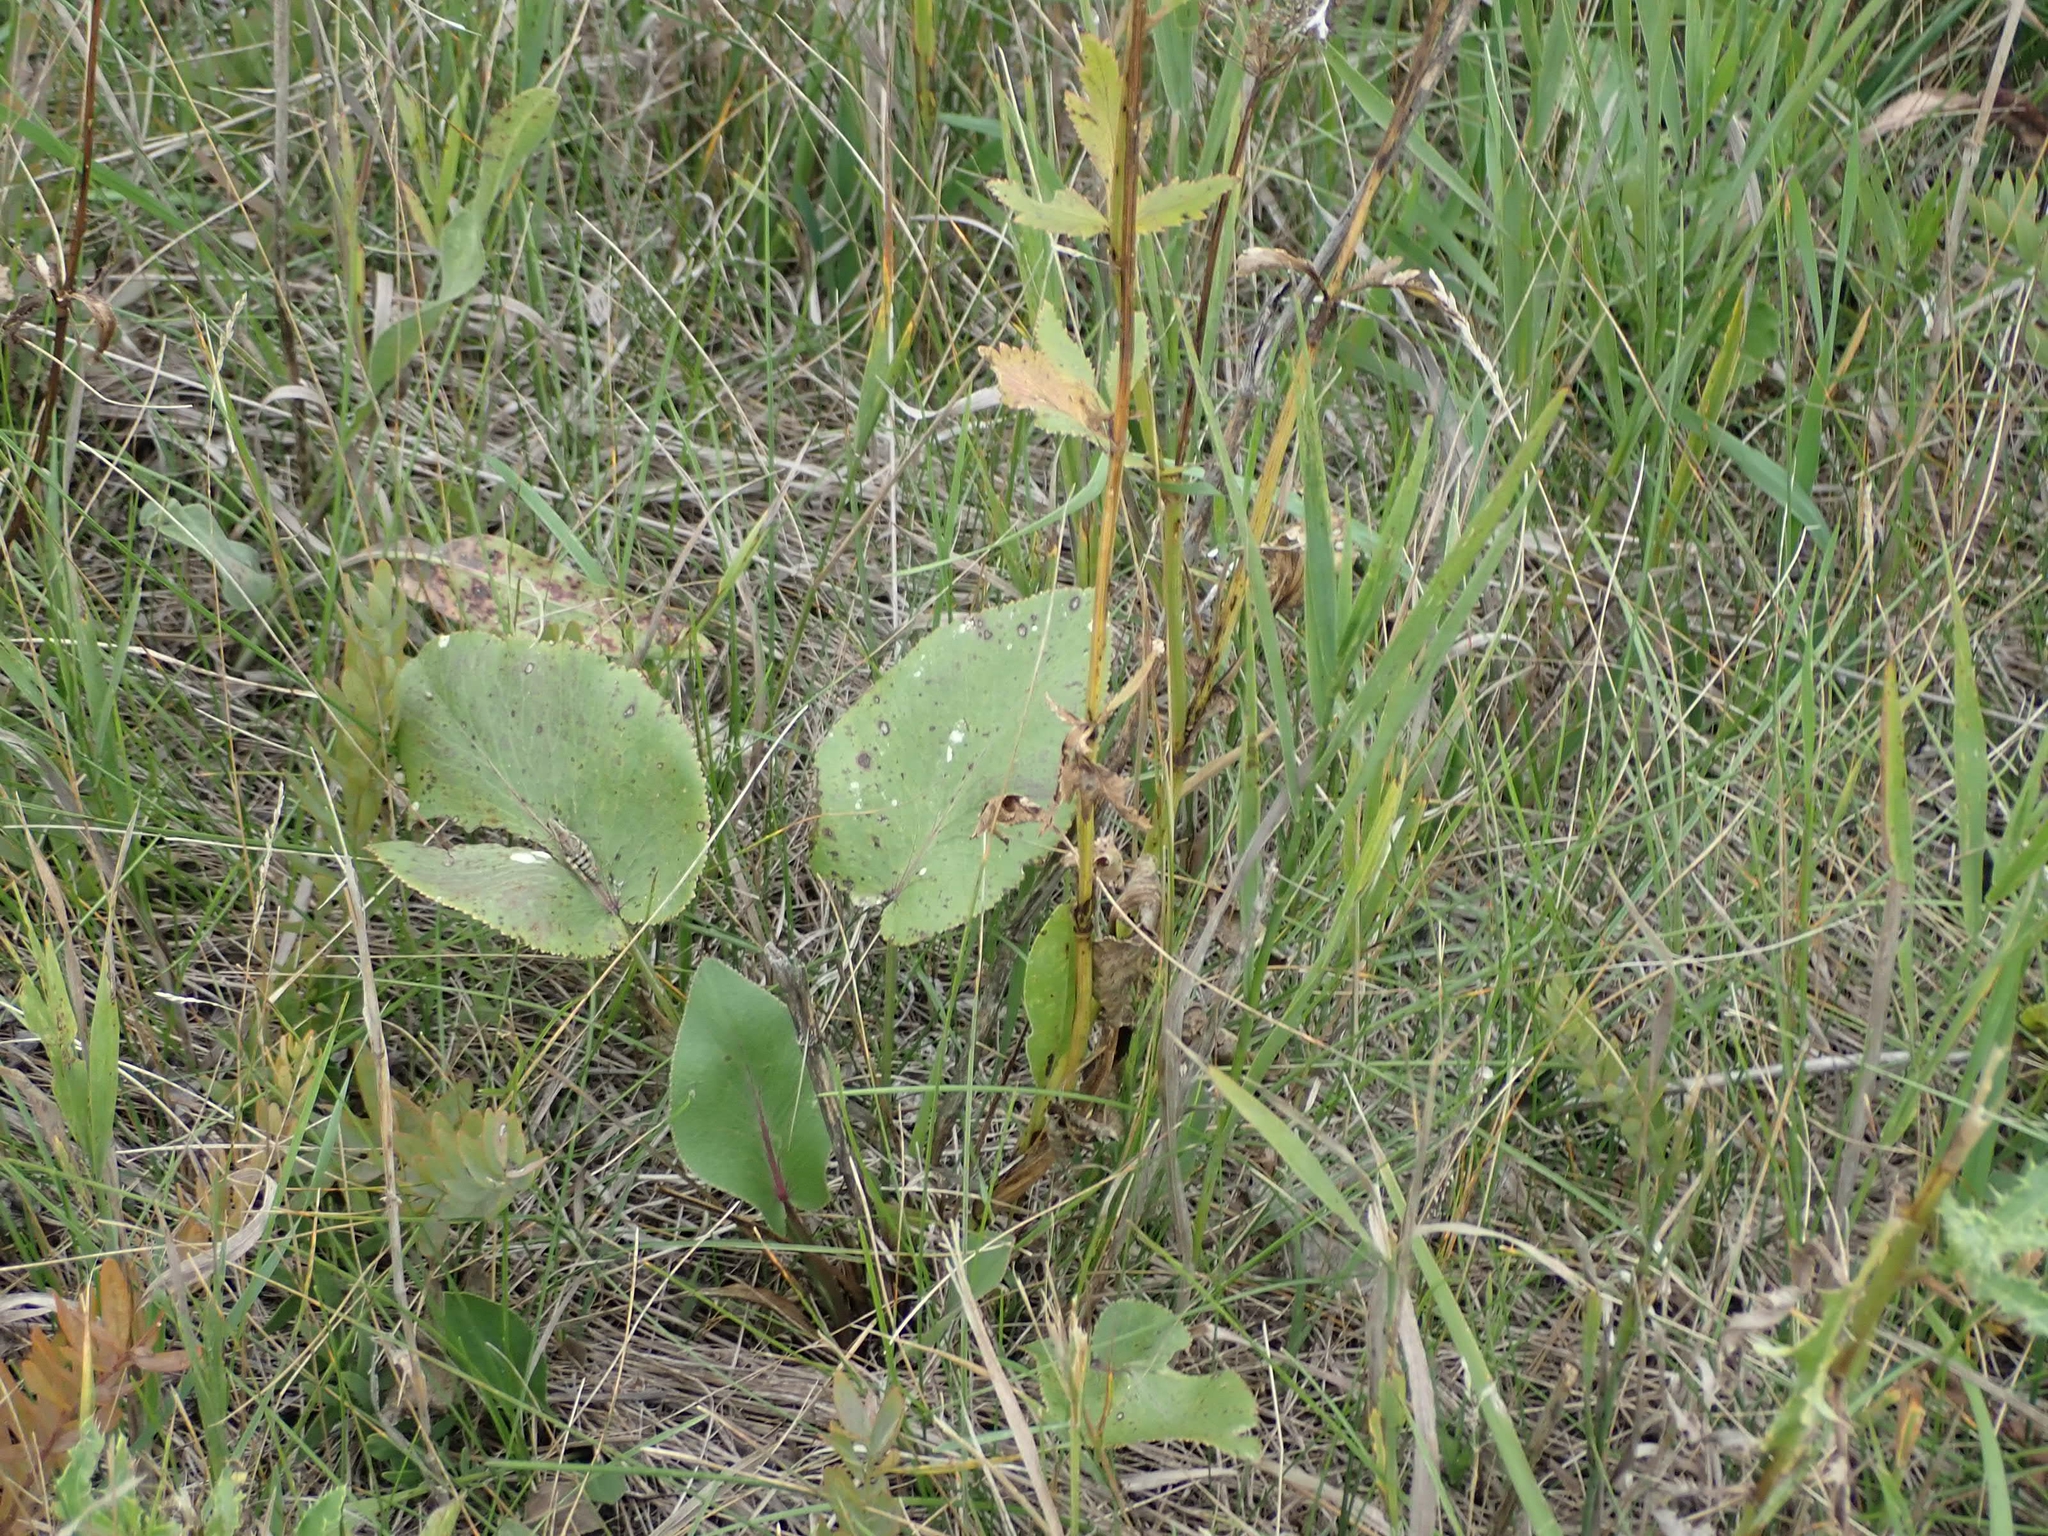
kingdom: Plantae
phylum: Tracheophyta
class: Magnoliopsida
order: Apiales
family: Apiaceae
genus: Zizia
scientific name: Zizia aptera
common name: Heart-leaved alexanders
